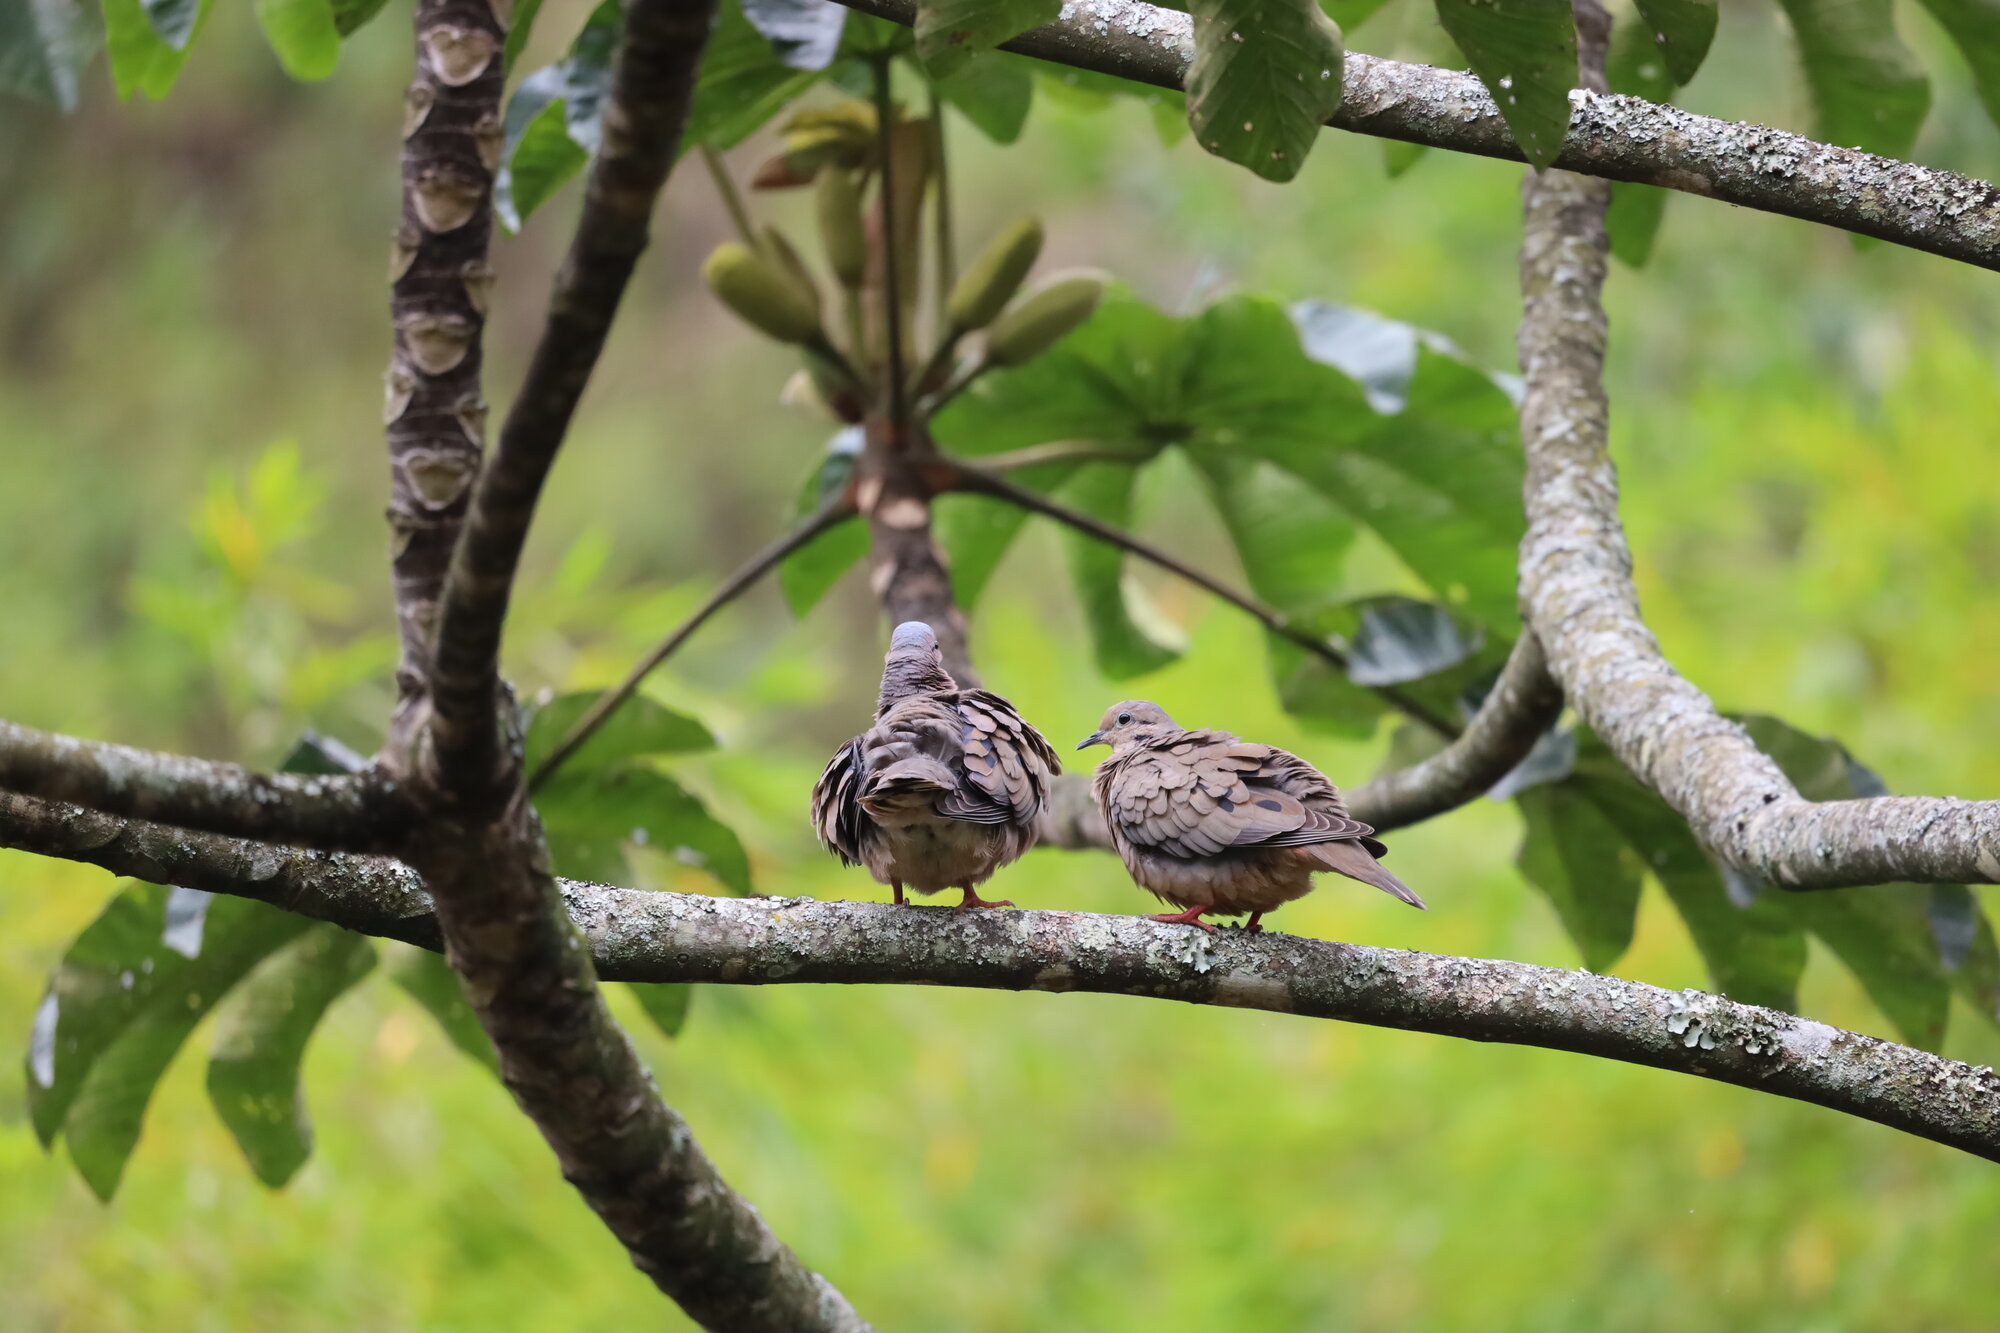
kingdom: Animalia
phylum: Chordata
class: Aves
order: Columbiformes
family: Columbidae
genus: Zenaida
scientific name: Zenaida auriculata
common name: Eared dove
